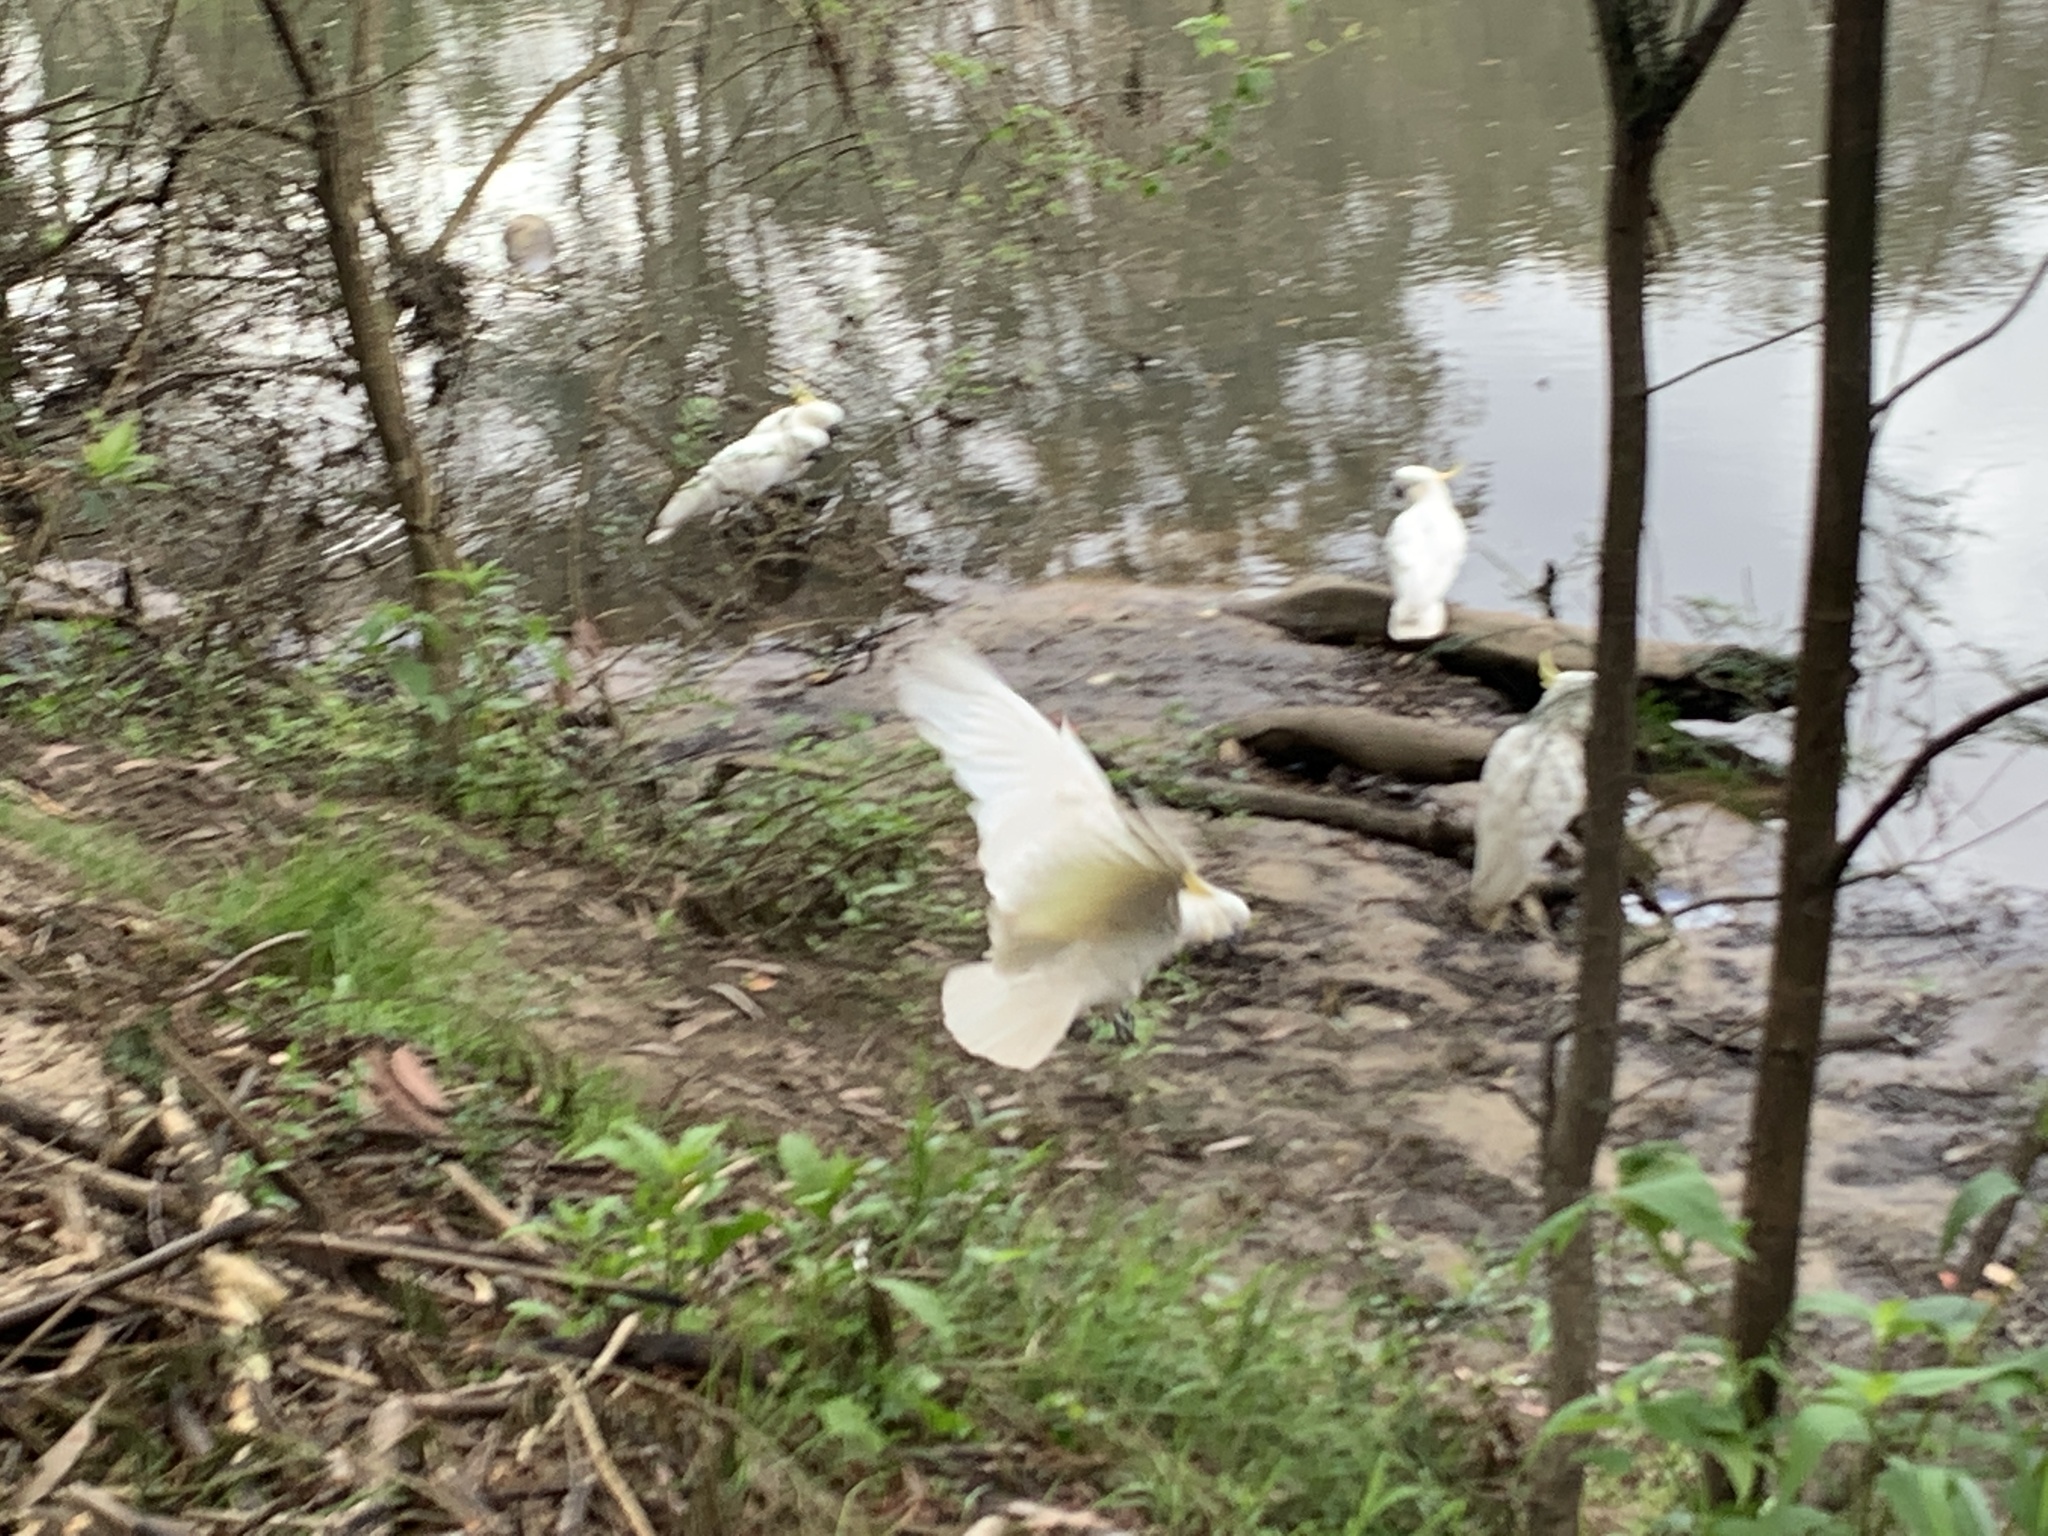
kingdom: Animalia
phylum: Chordata
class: Aves
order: Psittaciformes
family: Psittacidae
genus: Cacatua
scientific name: Cacatua galerita
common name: Sulphur-crested cockatoo
